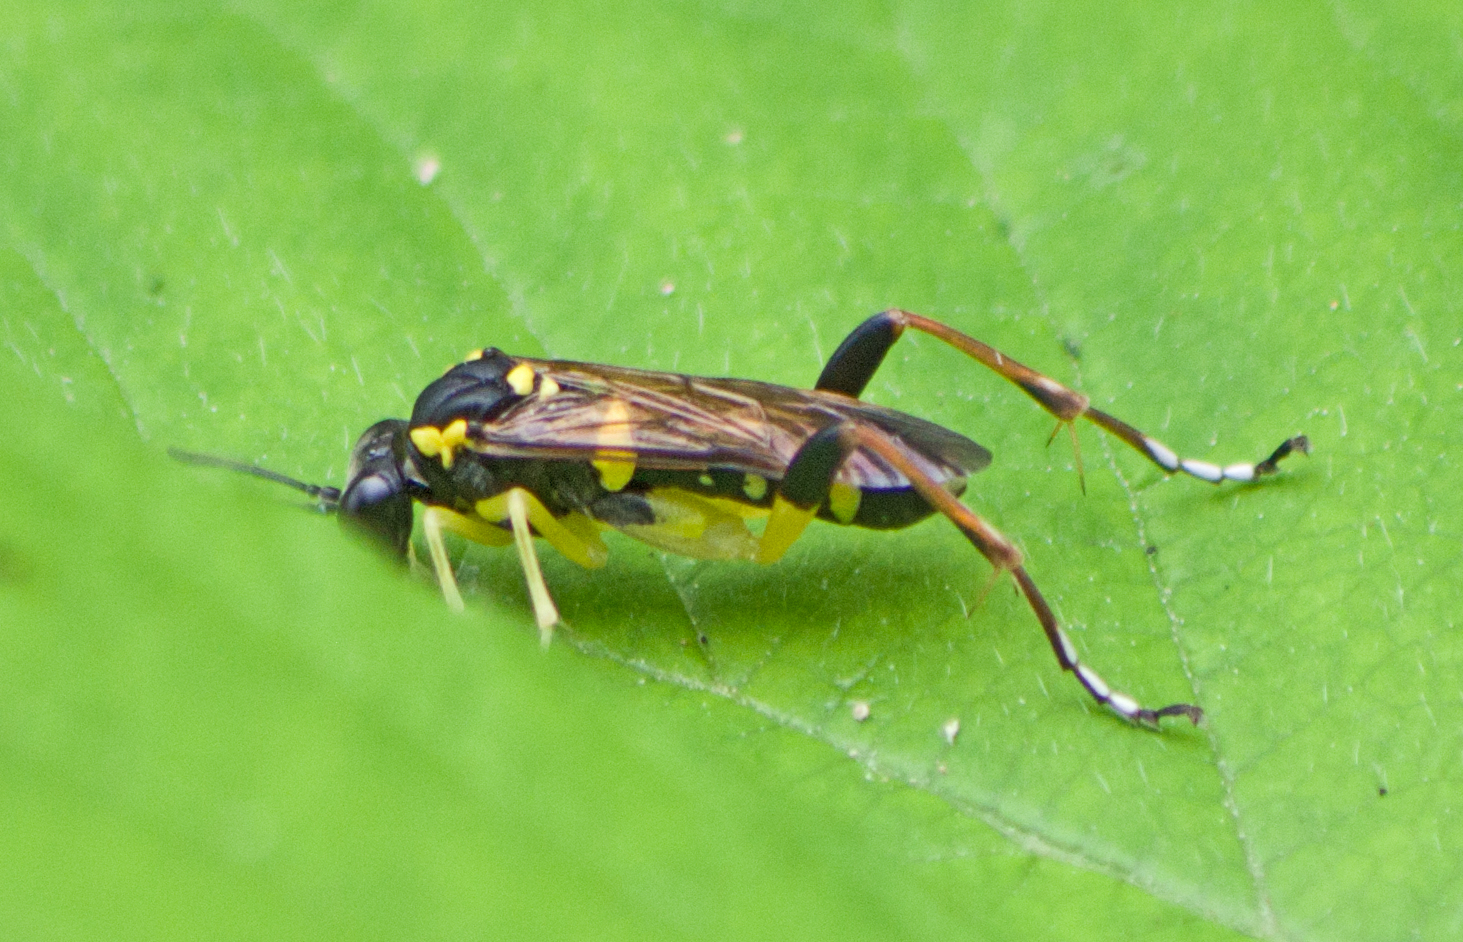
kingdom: Animalia
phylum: Arthropoda
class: Insecta
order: Hymenoptera
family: Tenthredinidae
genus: Macrophya
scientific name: Macrophya postica
